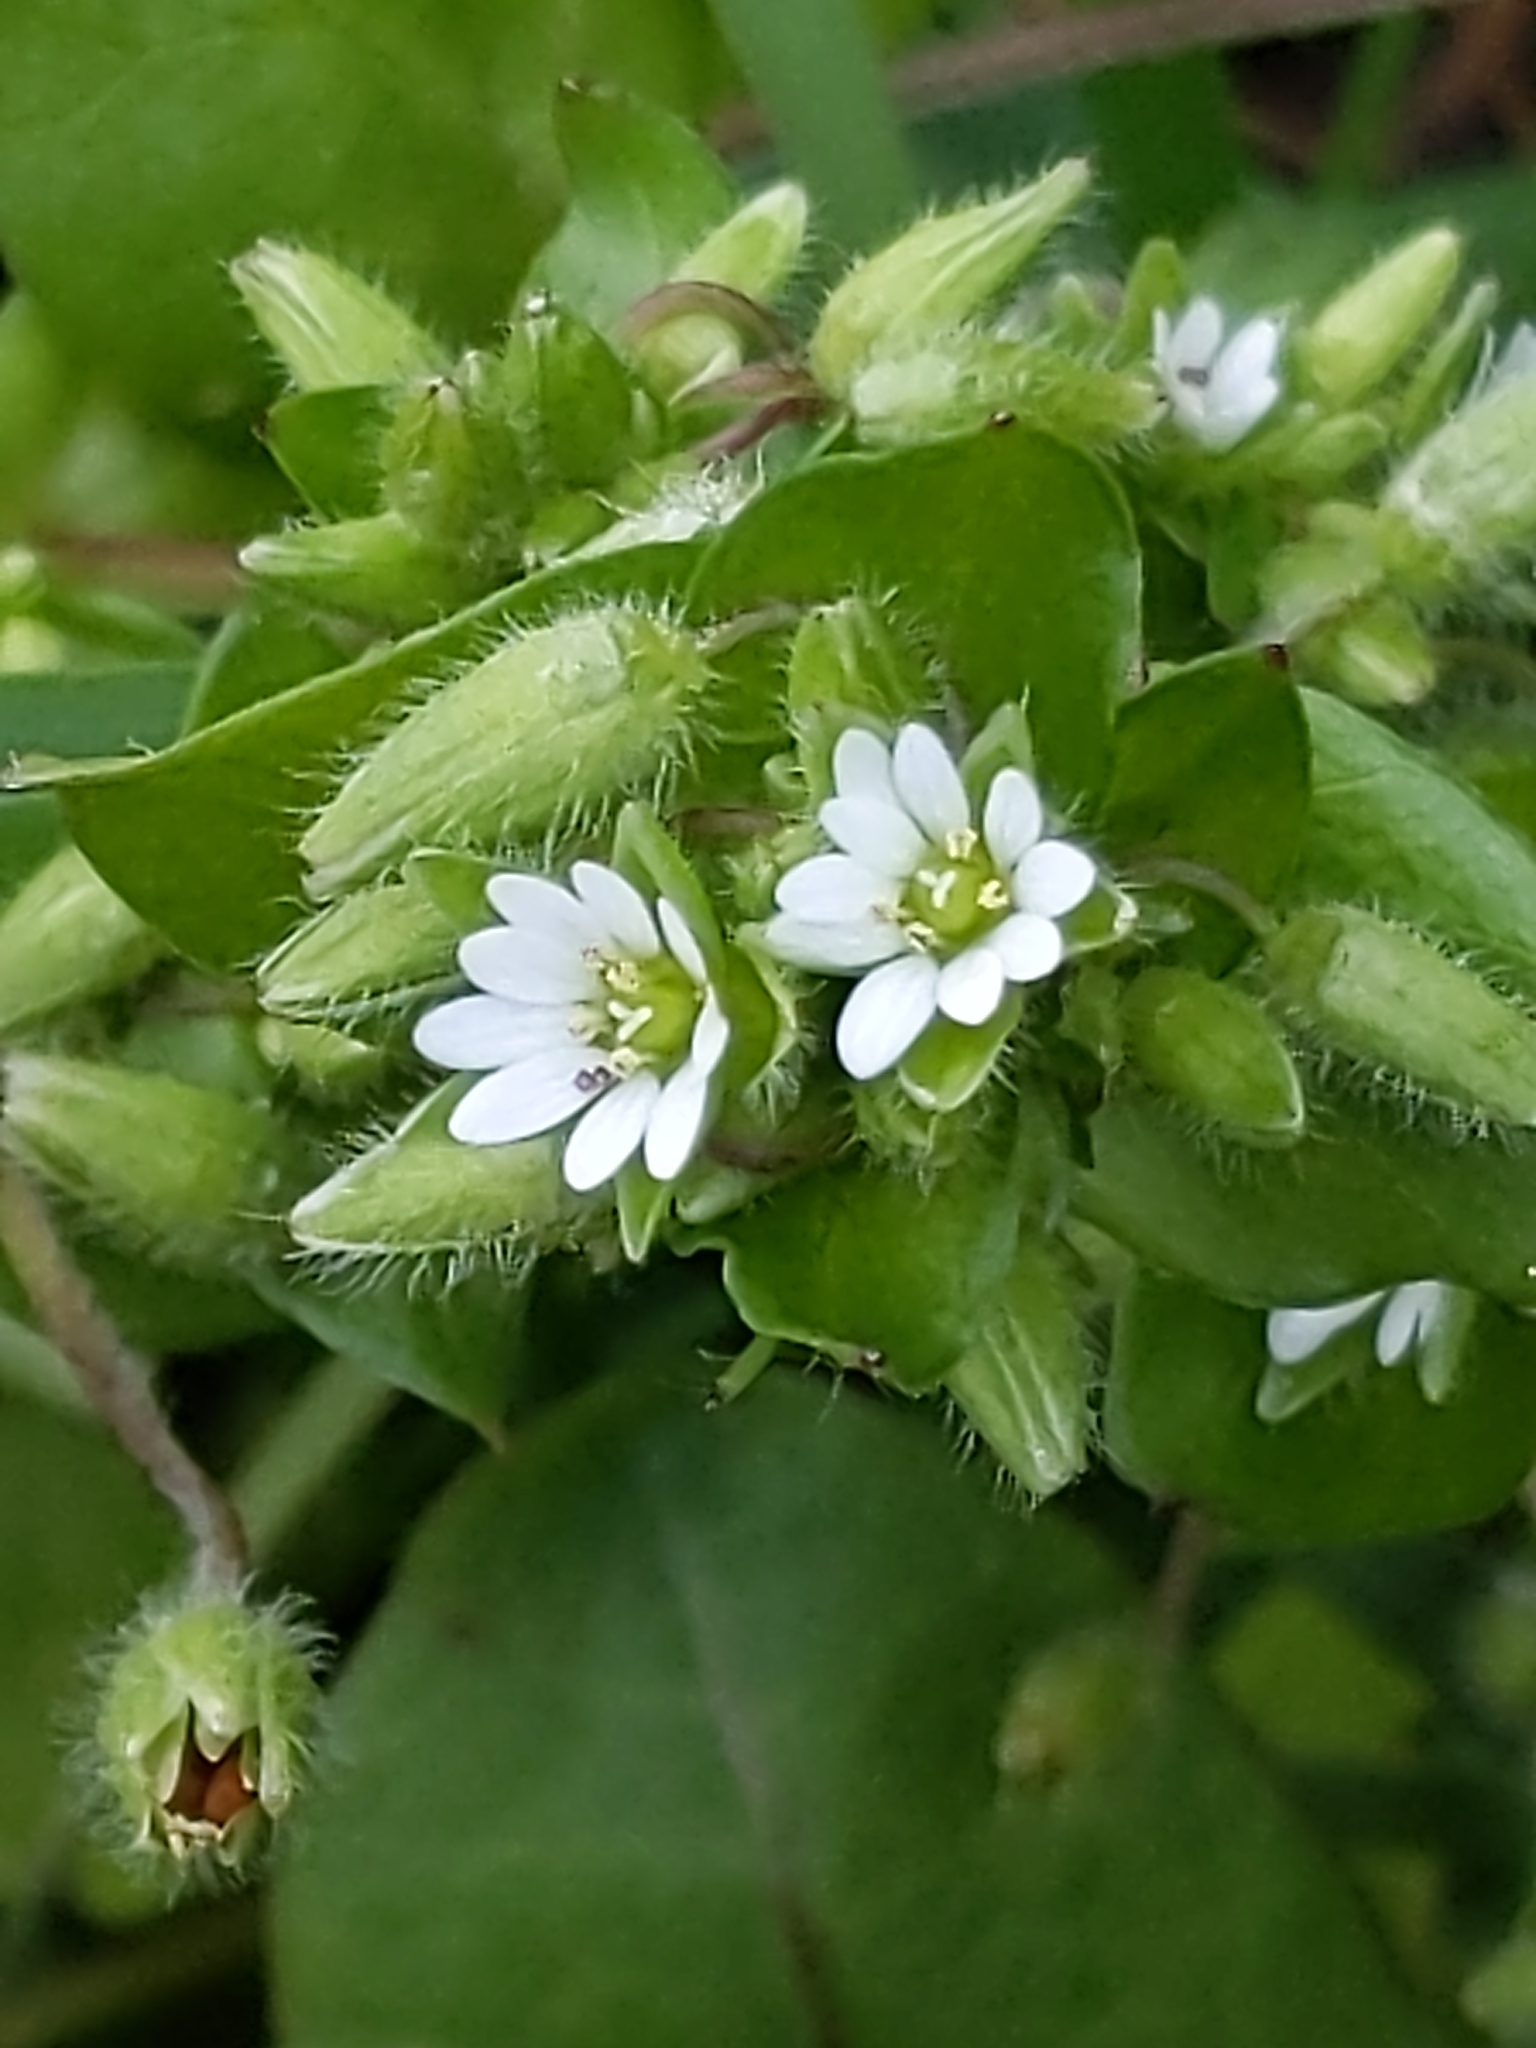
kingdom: Plantae
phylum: Tracheophyta
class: Magnoliopsida
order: Caryophyllales
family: Caryophyllaceae
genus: Stellaria
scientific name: Stellaria media
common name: Common chickweed
